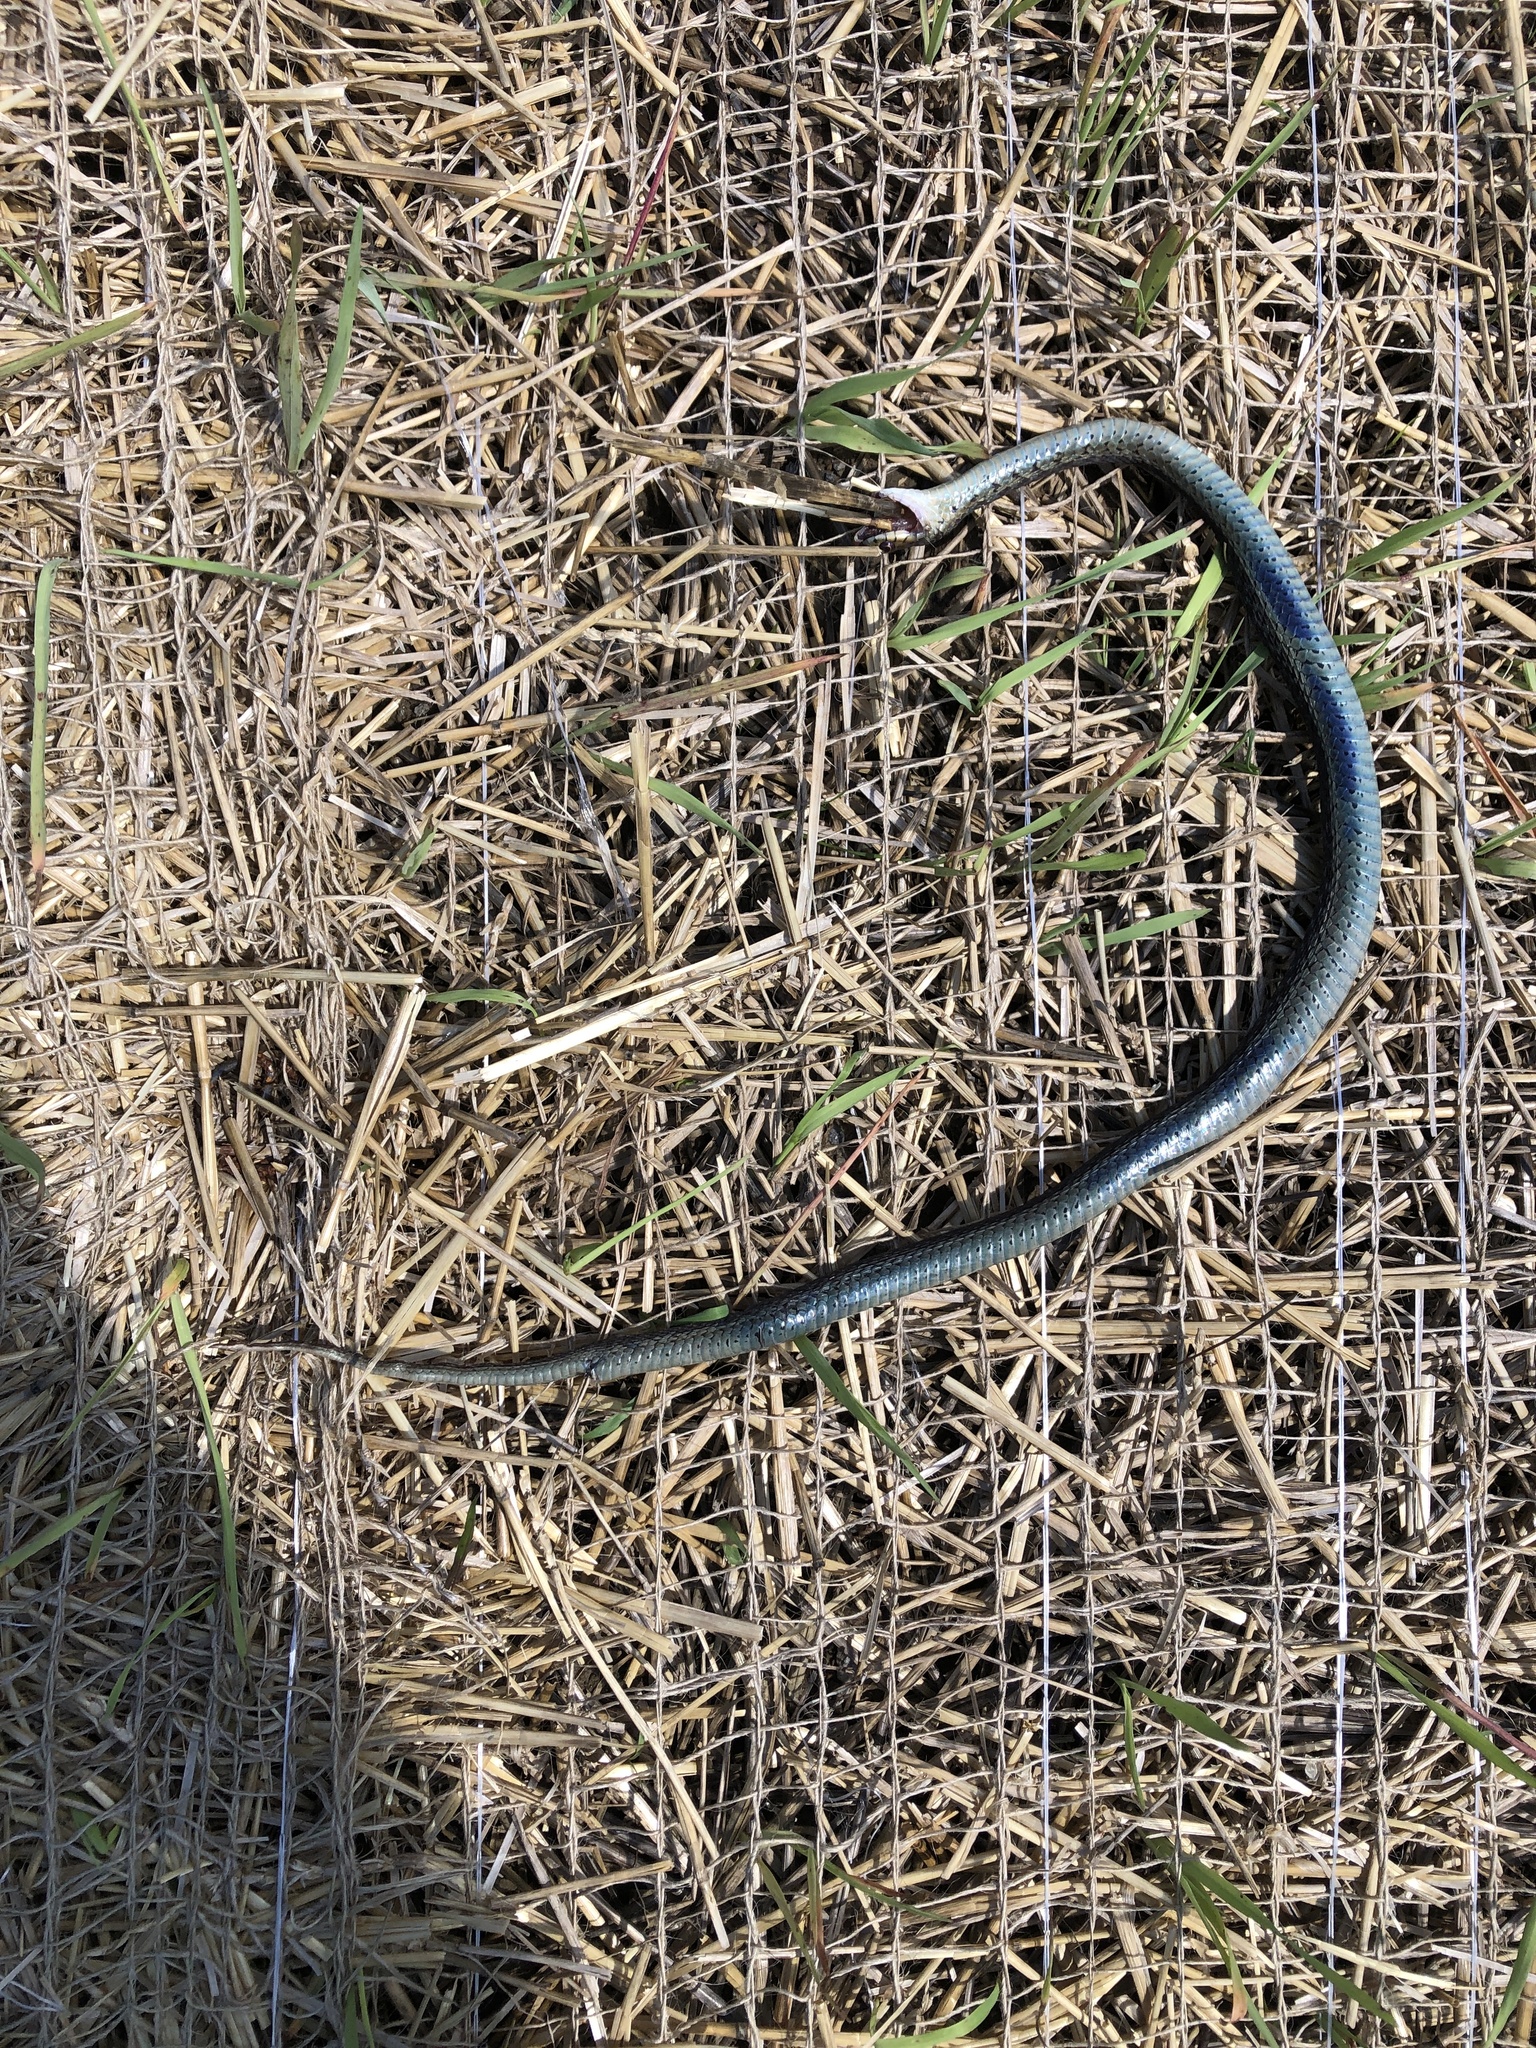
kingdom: Animalia
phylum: Chordata
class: Squamata
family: Colubridae
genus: Thamnophis
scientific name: Thamnophis sirtalis
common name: Common garter snake
